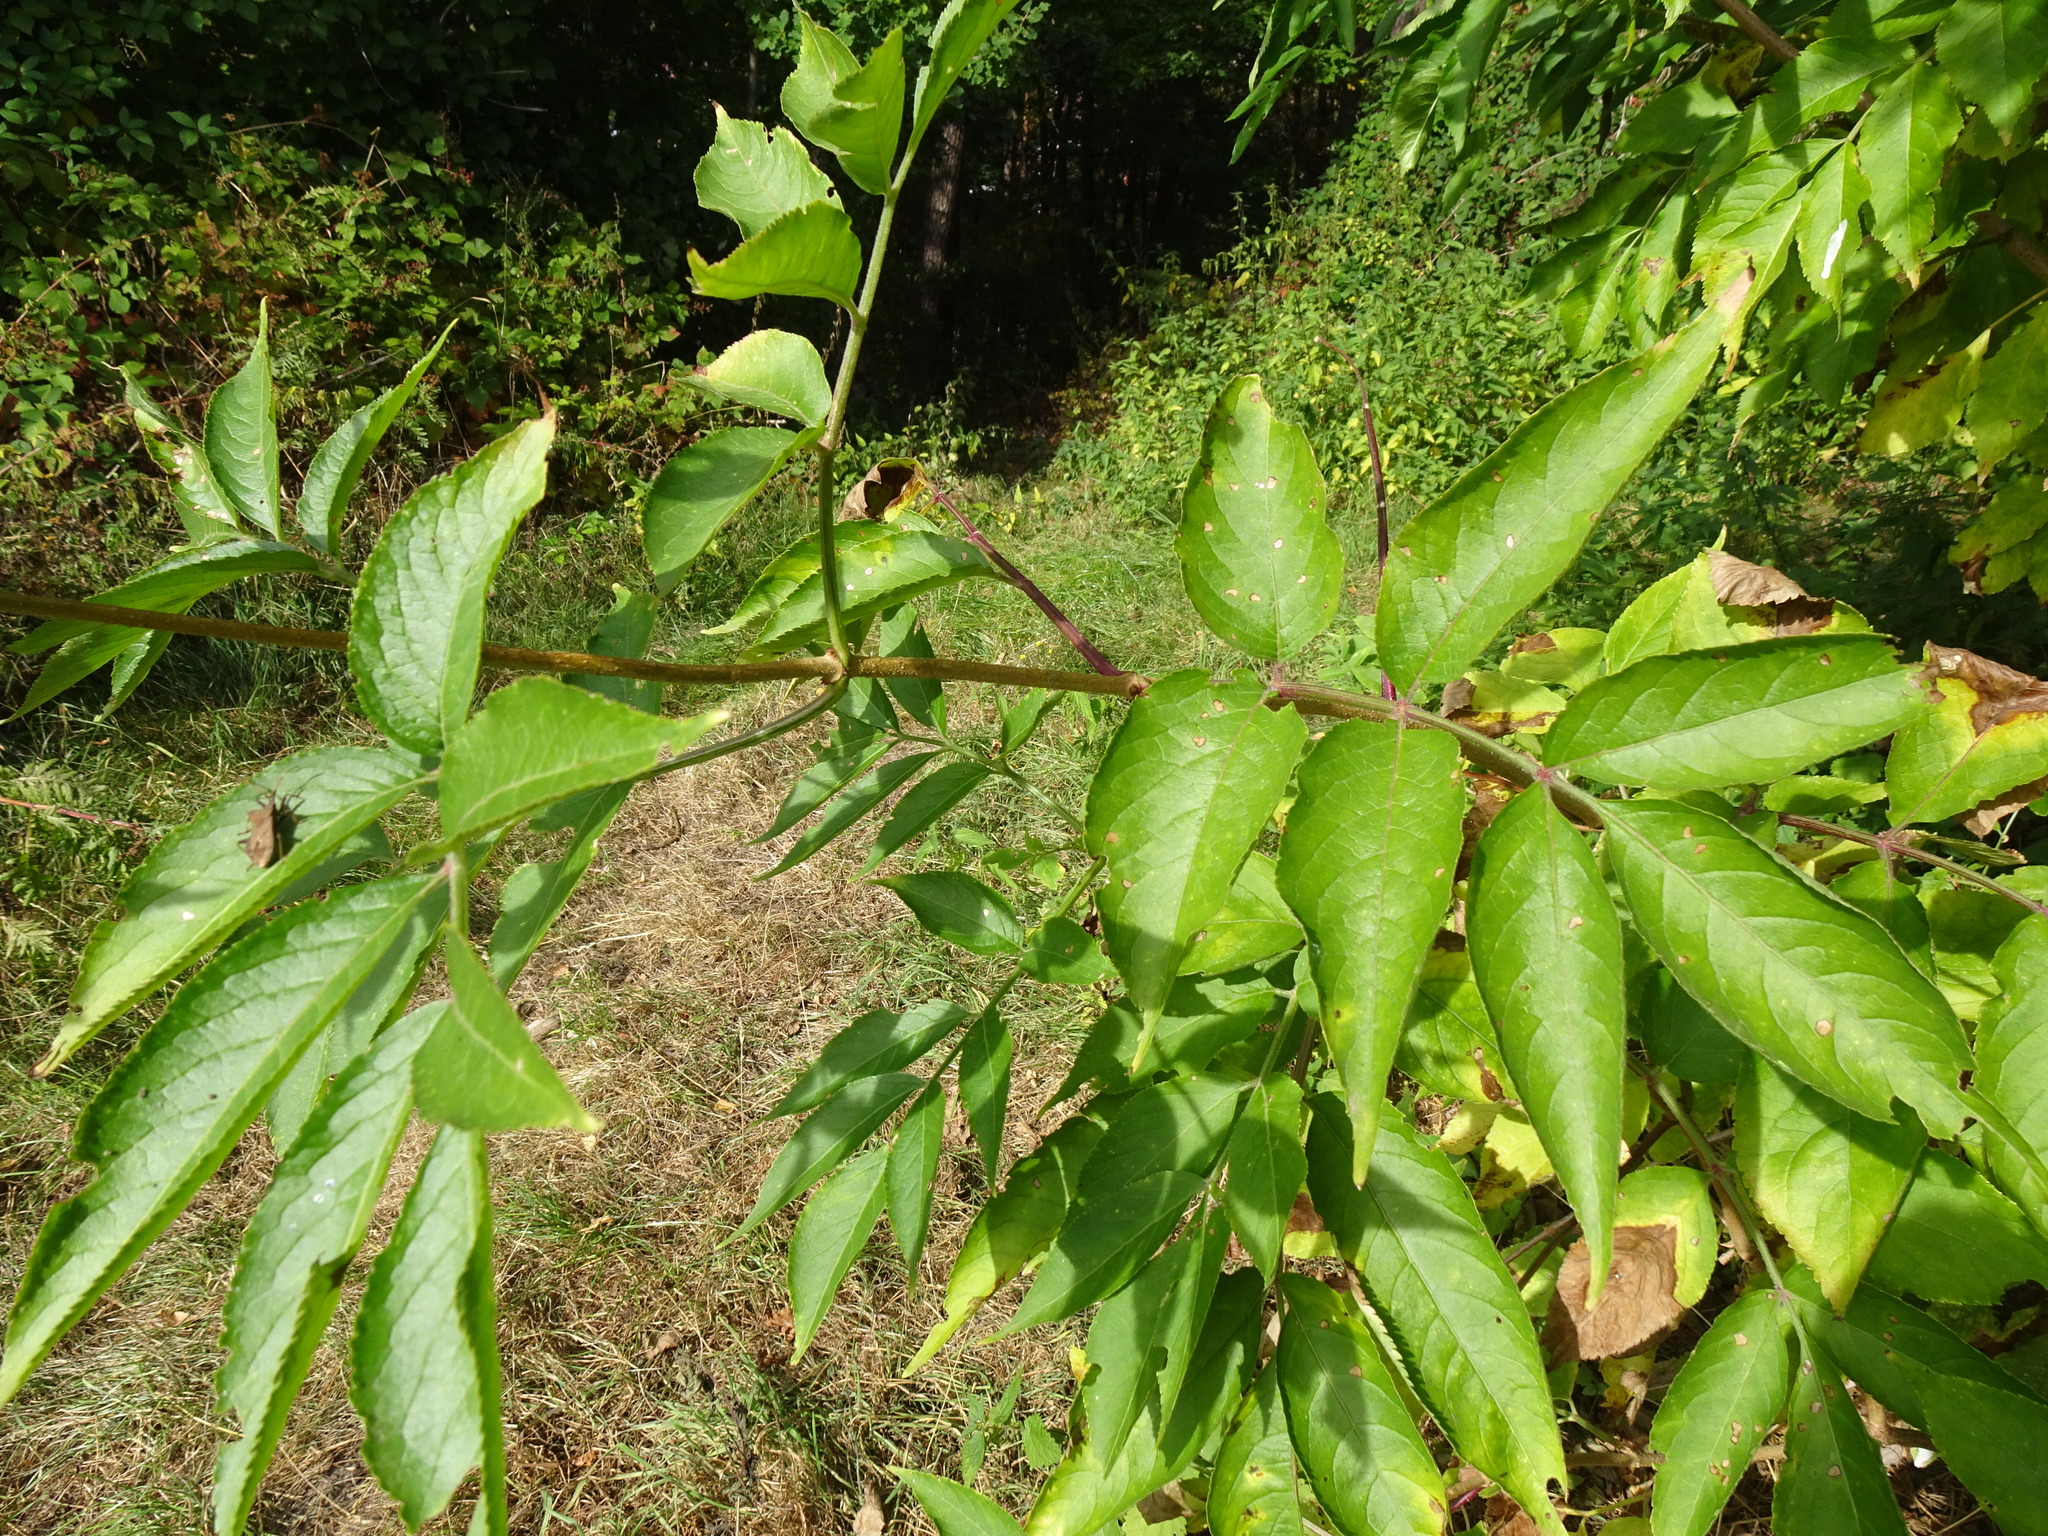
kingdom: Plantae
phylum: Tracheophyta
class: Magnoliopsida
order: Dipsacales
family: Viburnaceae
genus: Sambucus
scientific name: Sambucus nigra
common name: Elder
